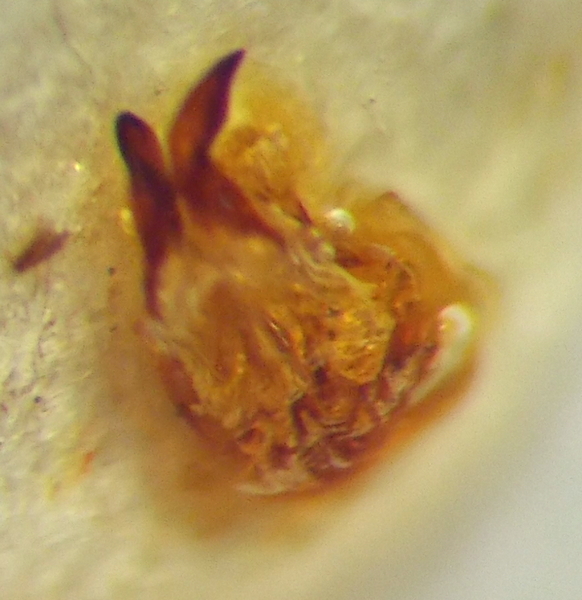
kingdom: Animalia
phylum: Arthropoda
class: Insecta
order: Hemiptera
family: Scutelleridae
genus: Eurygaster
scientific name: Eurygaster maura
